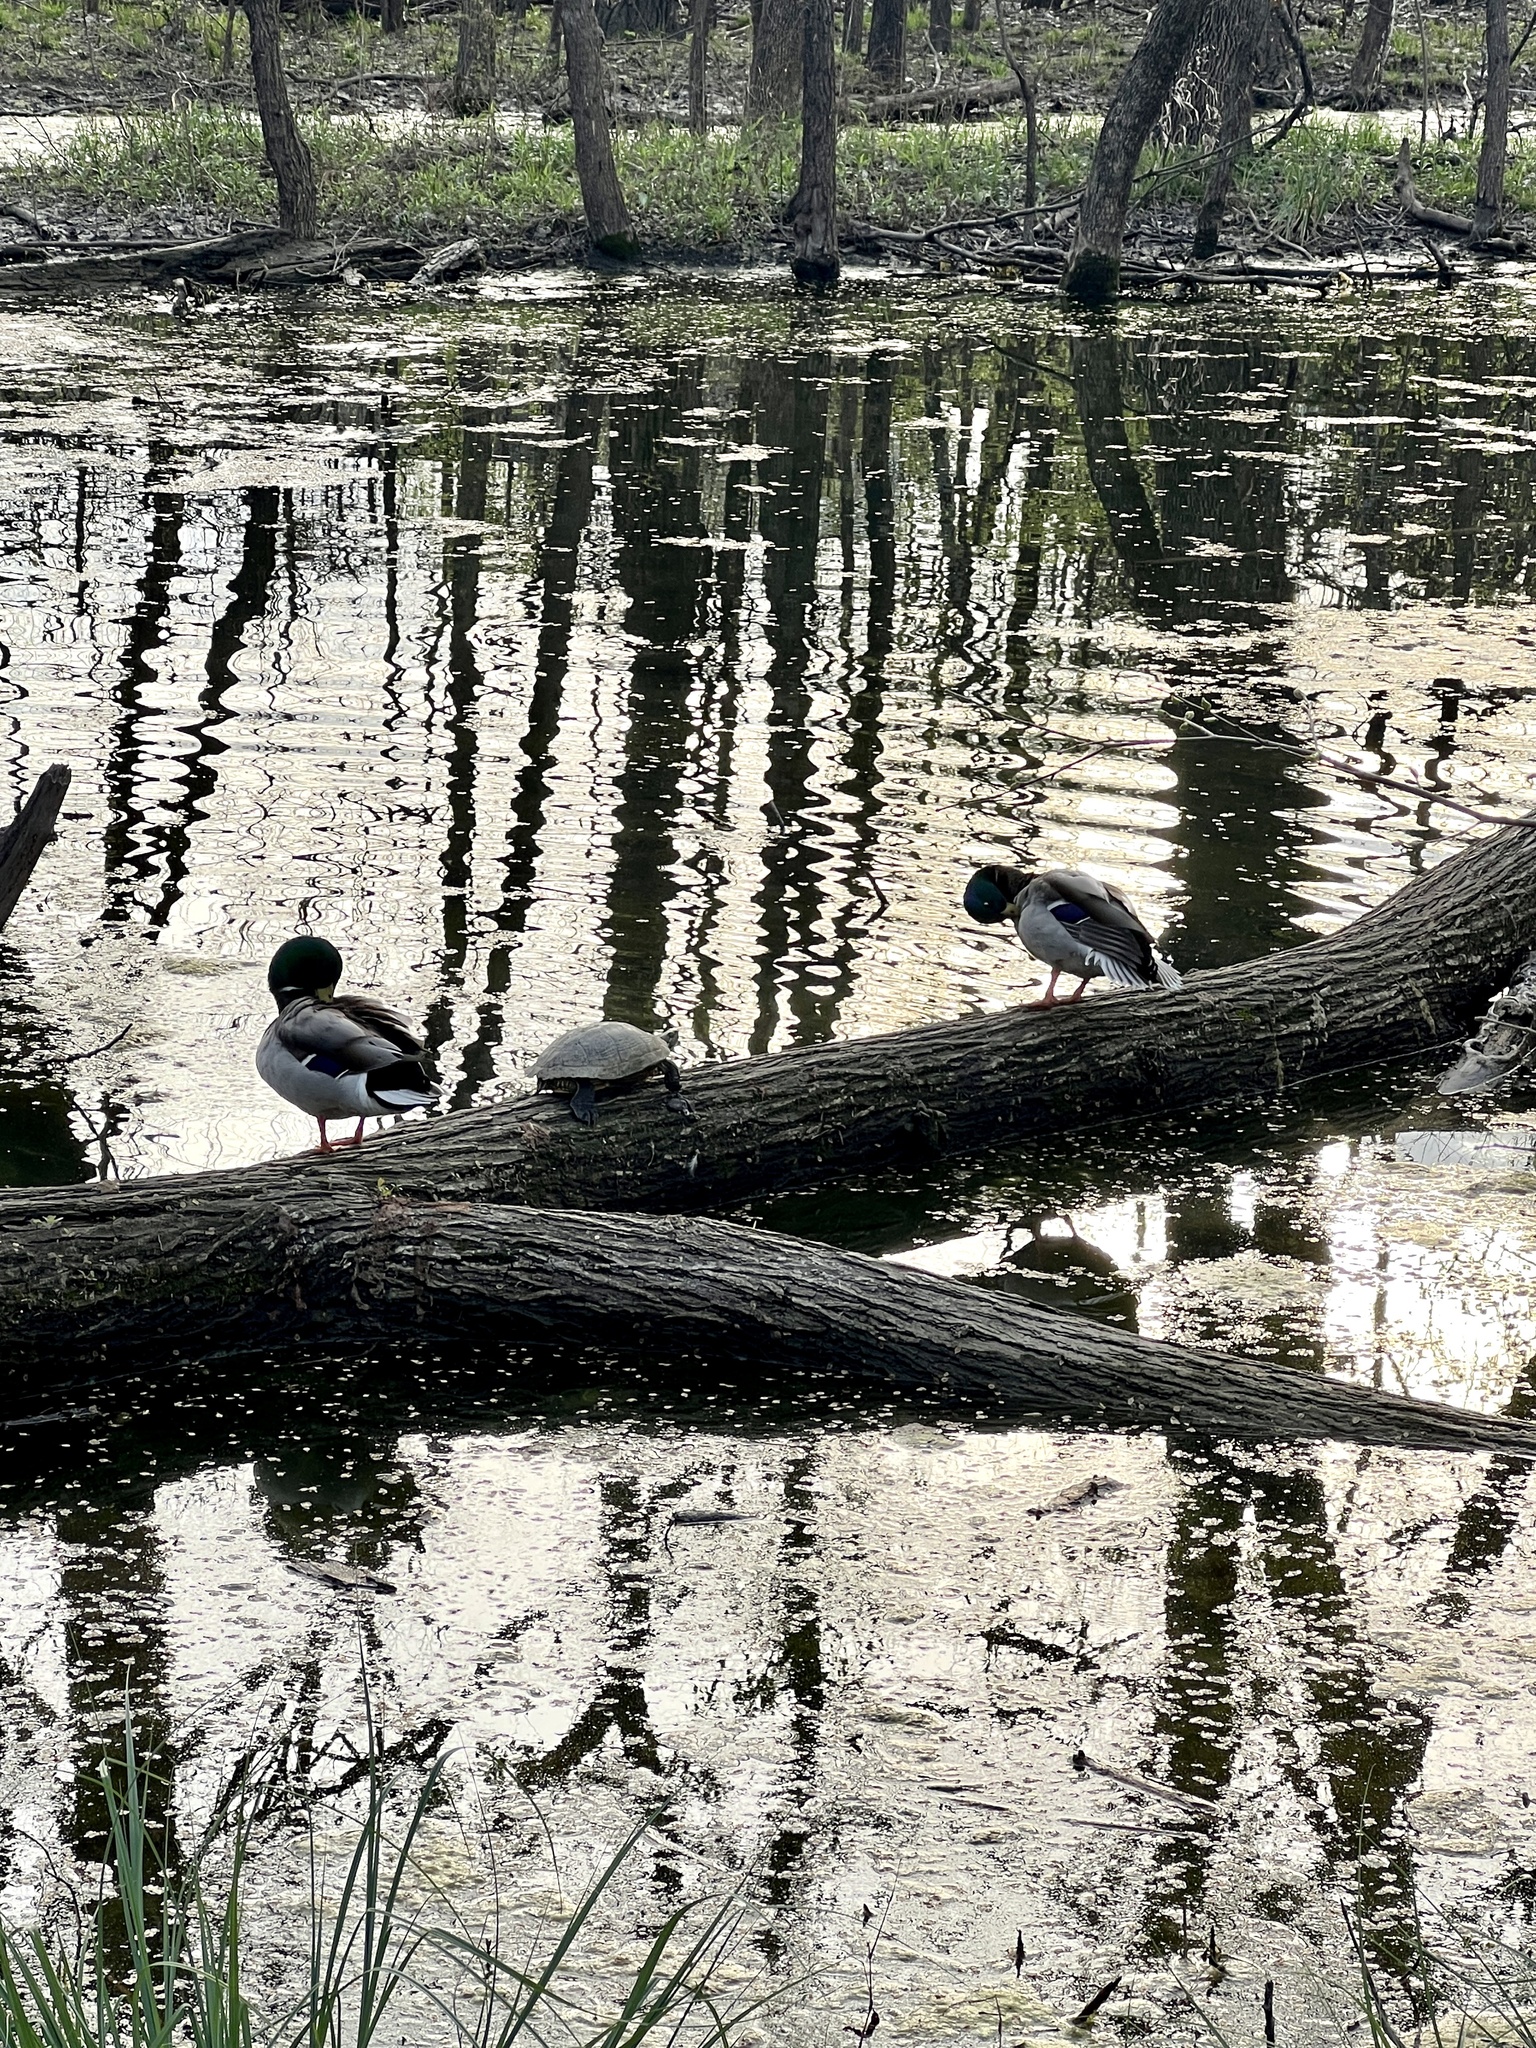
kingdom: Animalia
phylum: Chordata
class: Testudines
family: Emydidae
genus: Trachemys
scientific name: Trachemys scripta
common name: Slider
